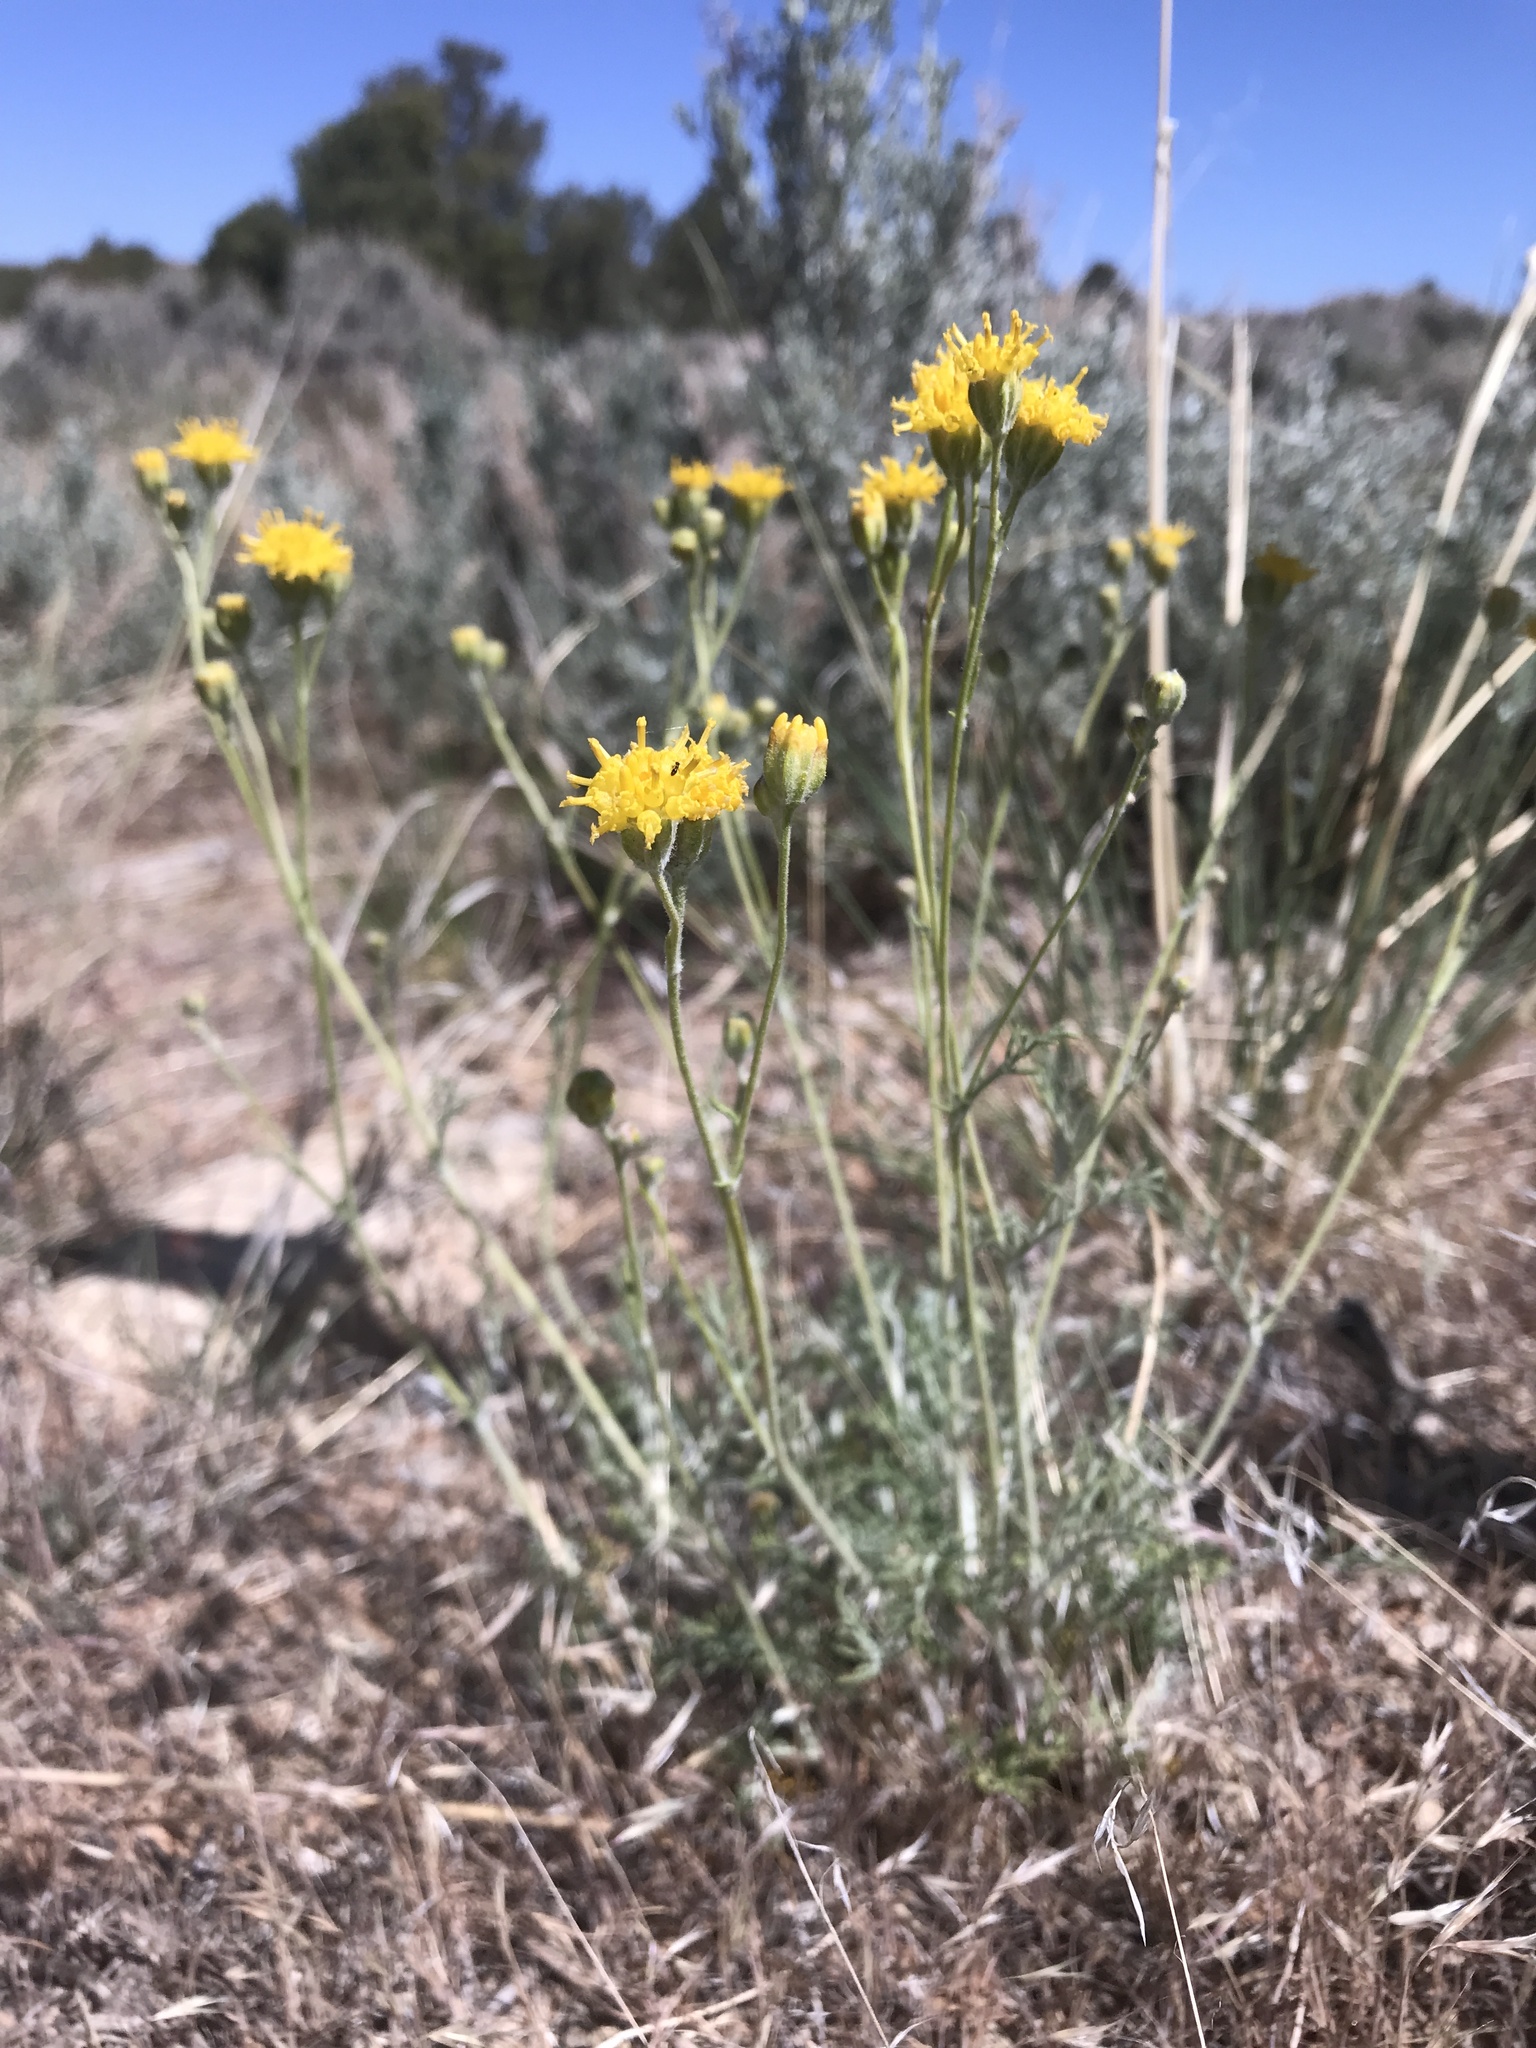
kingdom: Plantae
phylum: Tracheophyta
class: Magnoliopsida
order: Asterales
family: Asteraceae
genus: Hymenopappus
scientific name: Hymenopappus filifolius
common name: Columbia cutleaf
